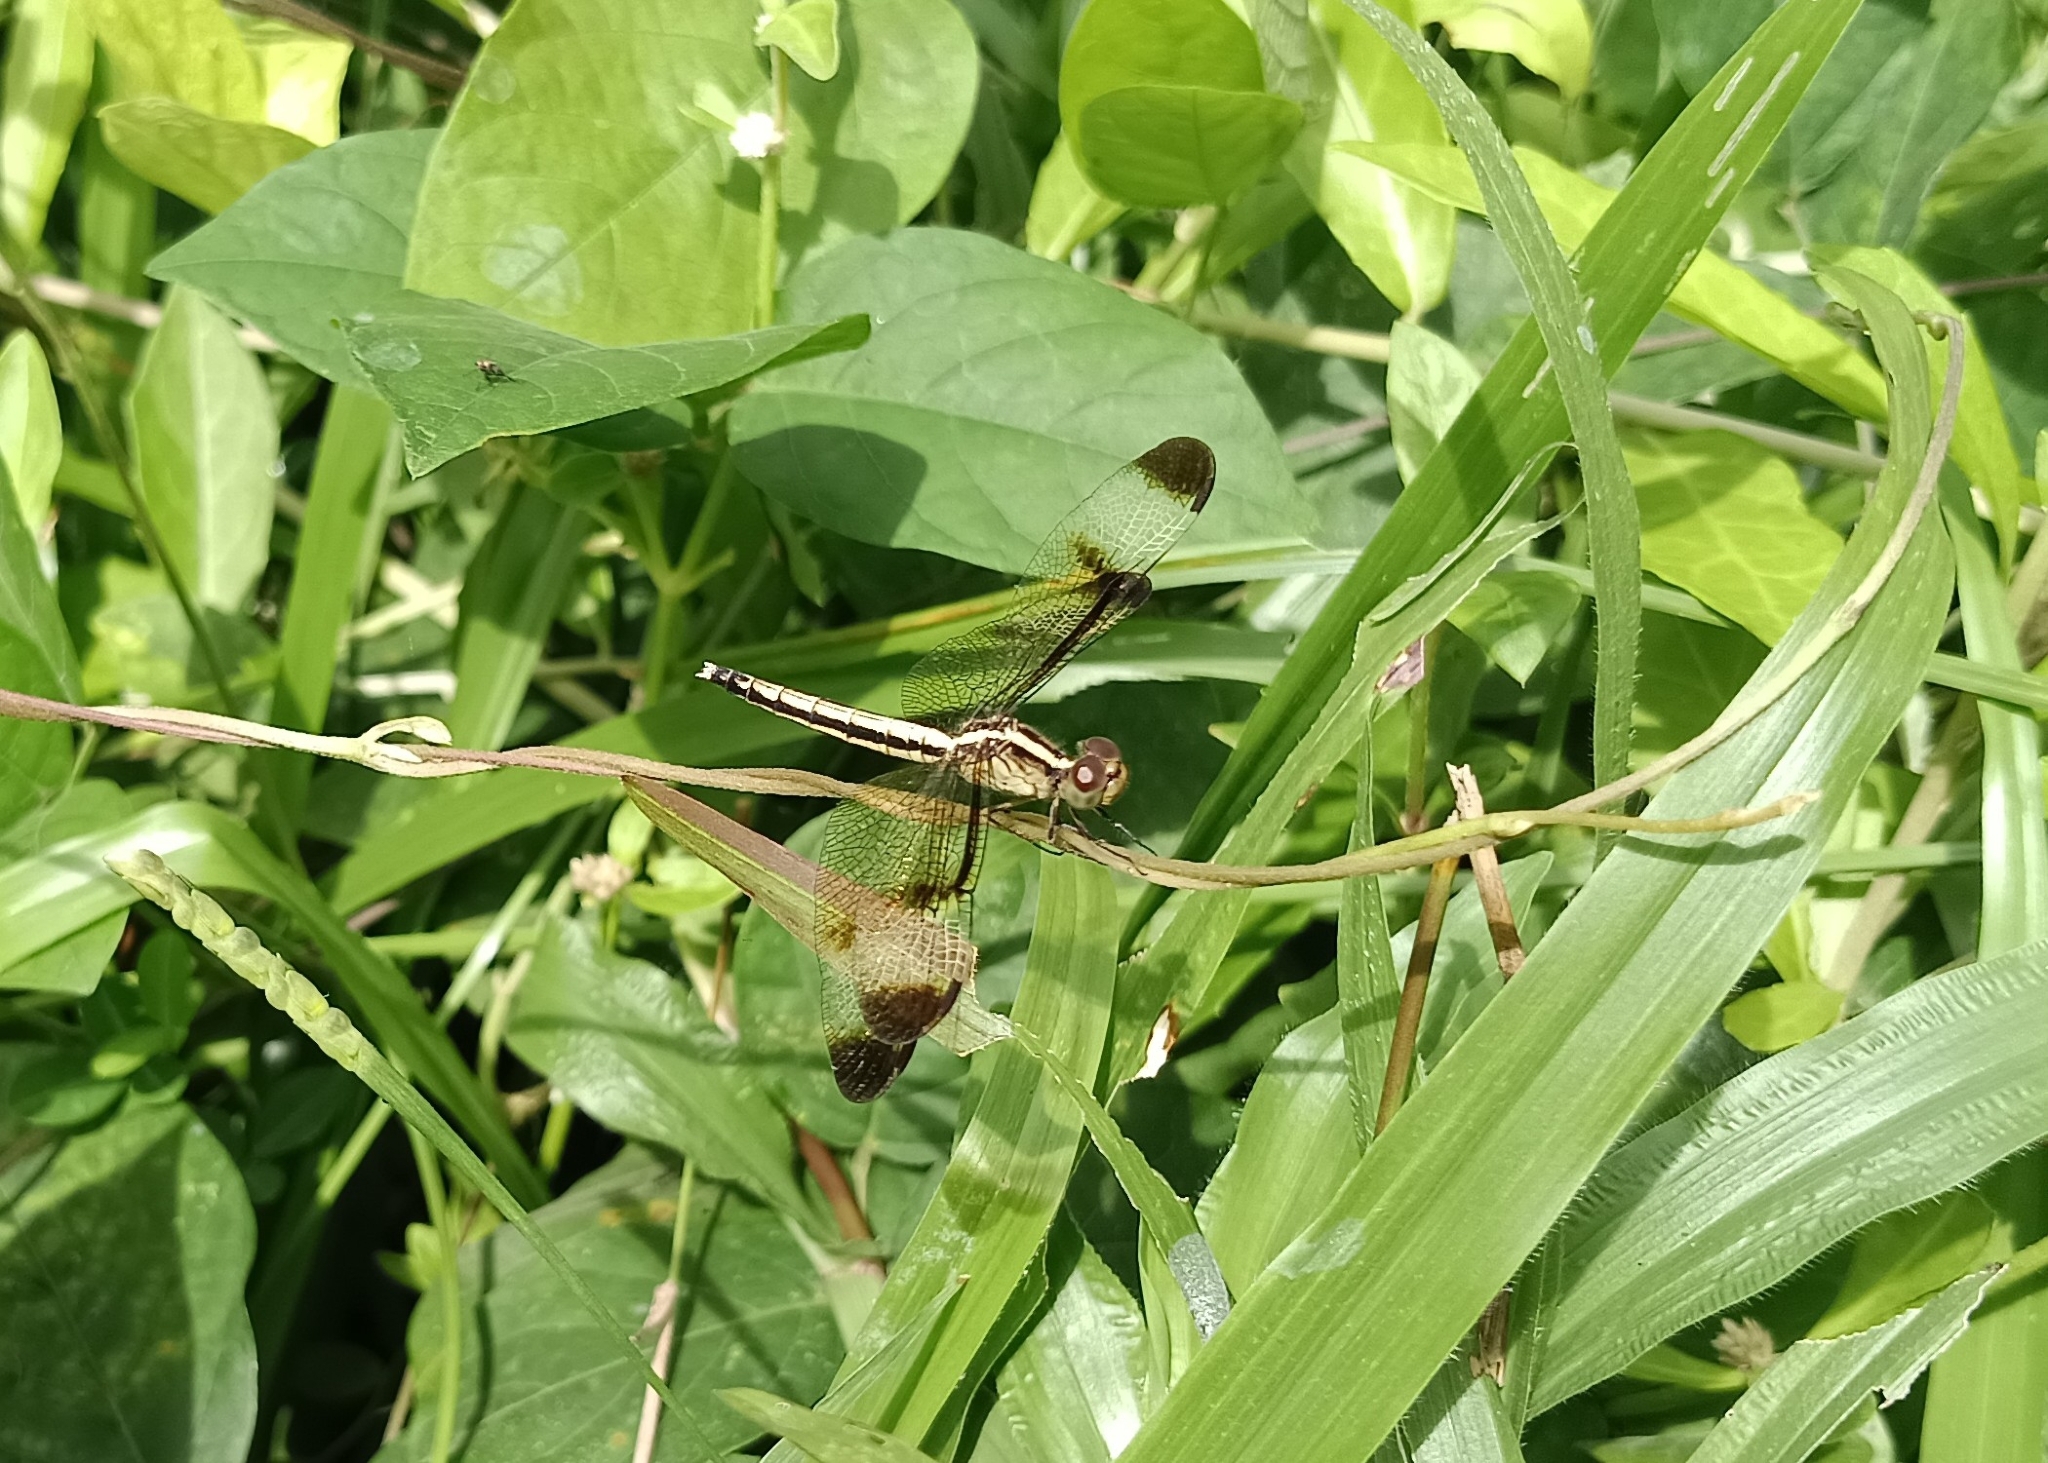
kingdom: Animalia
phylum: Arthropoda
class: Insecta
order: Odonata
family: Libellulidae
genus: Neurothemis
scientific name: Neurothemis tullia
